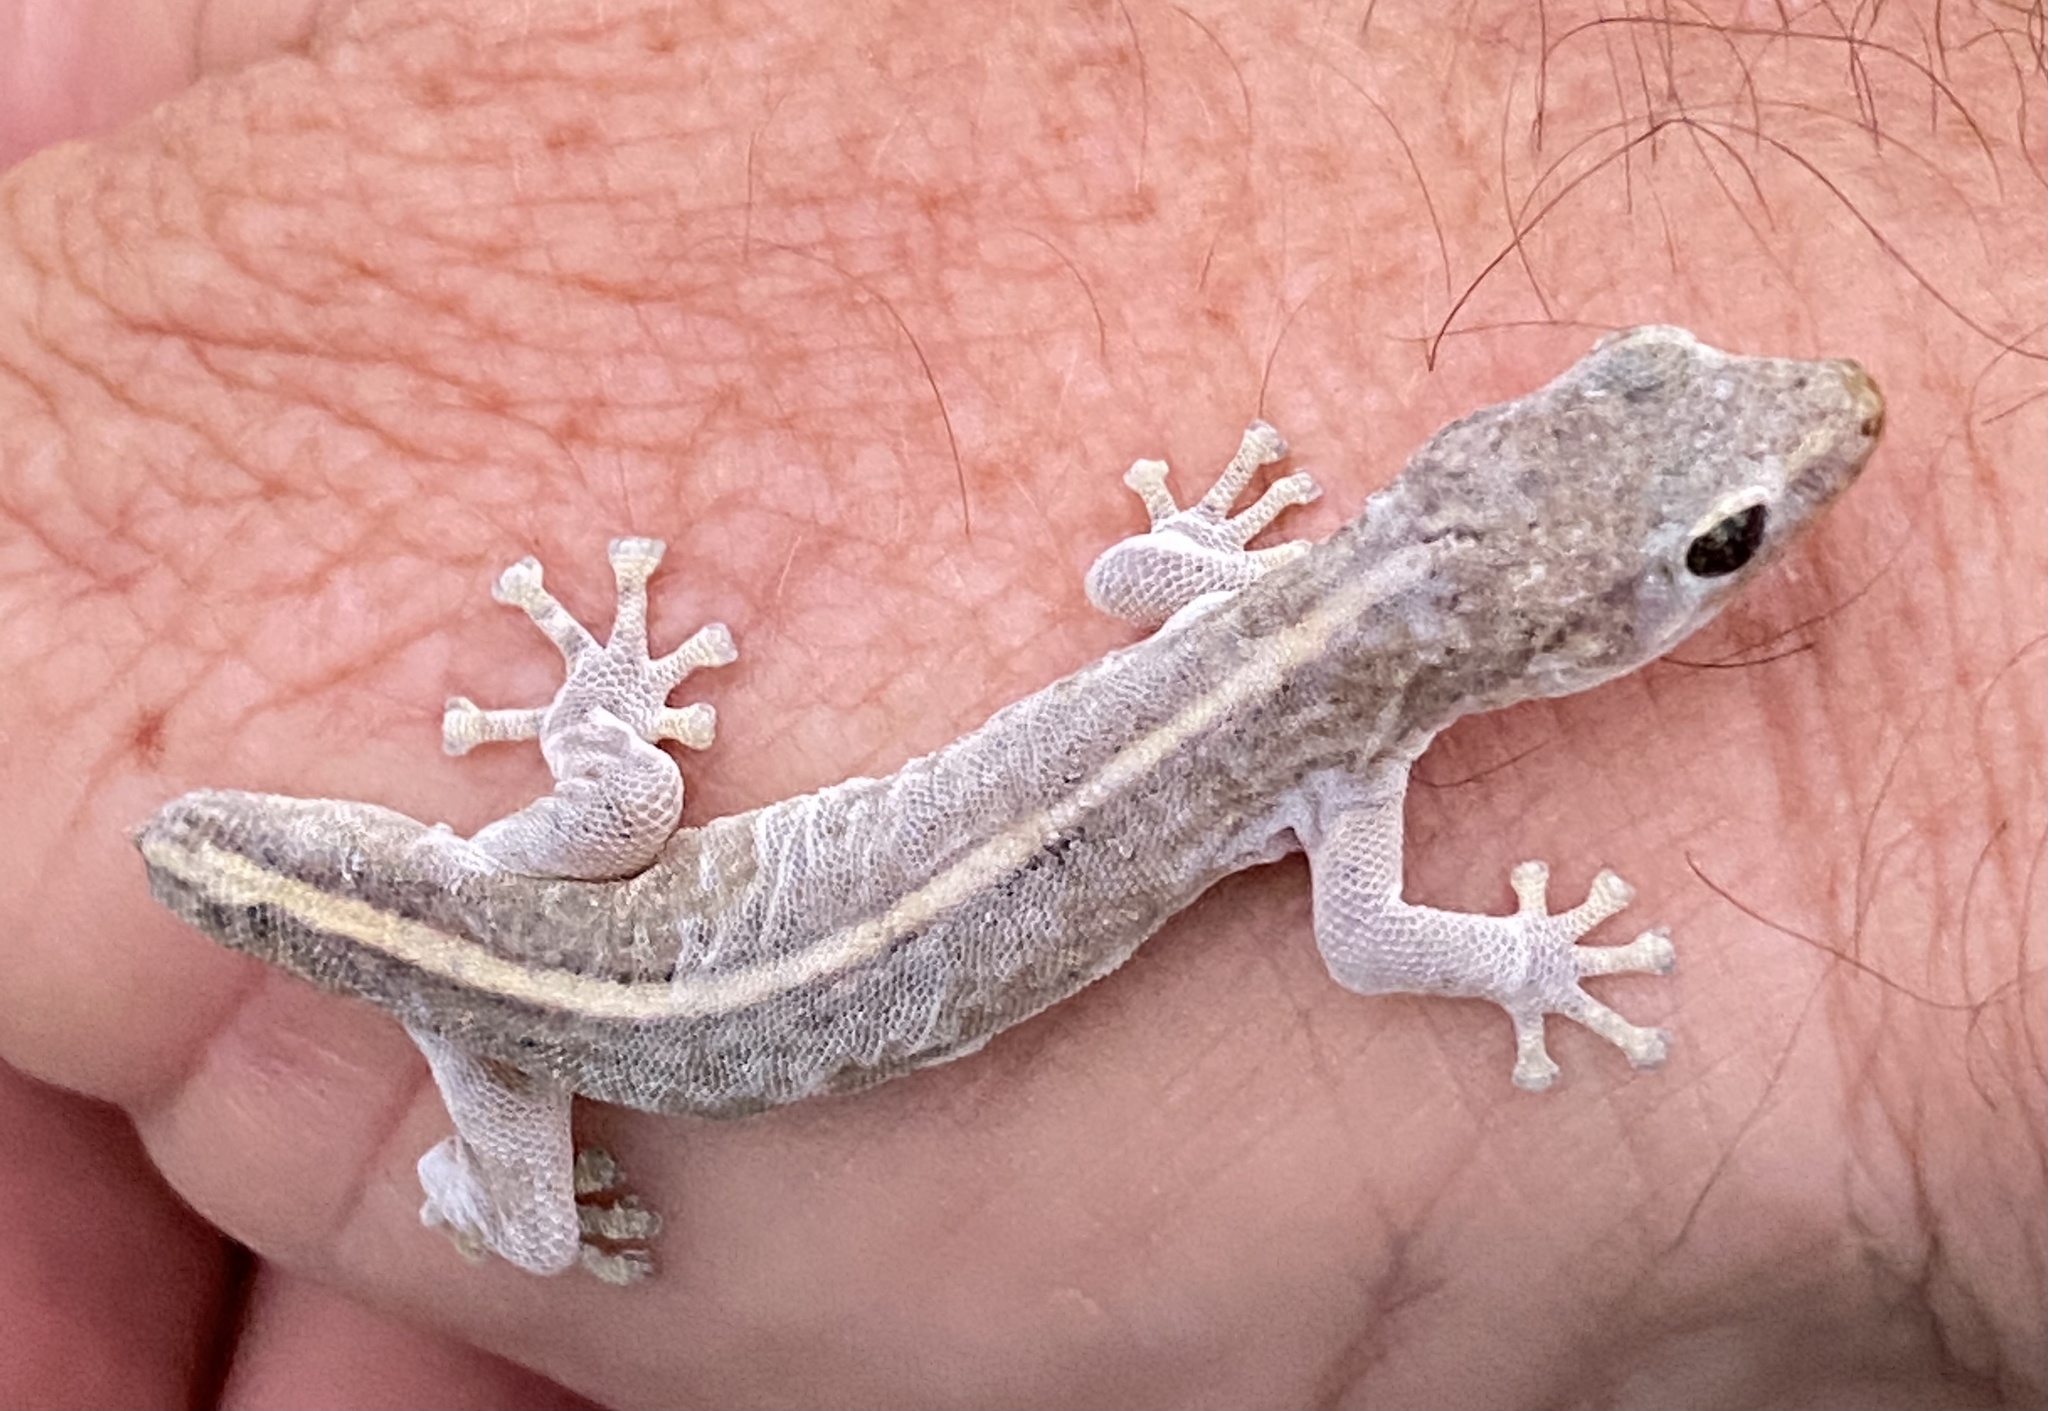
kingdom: Animalia
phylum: Chordata
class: Squamata
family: Gekkonidae
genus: Afrogecko
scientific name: Afrogecko porphyreus
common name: Marbled leaf-toed gecko
